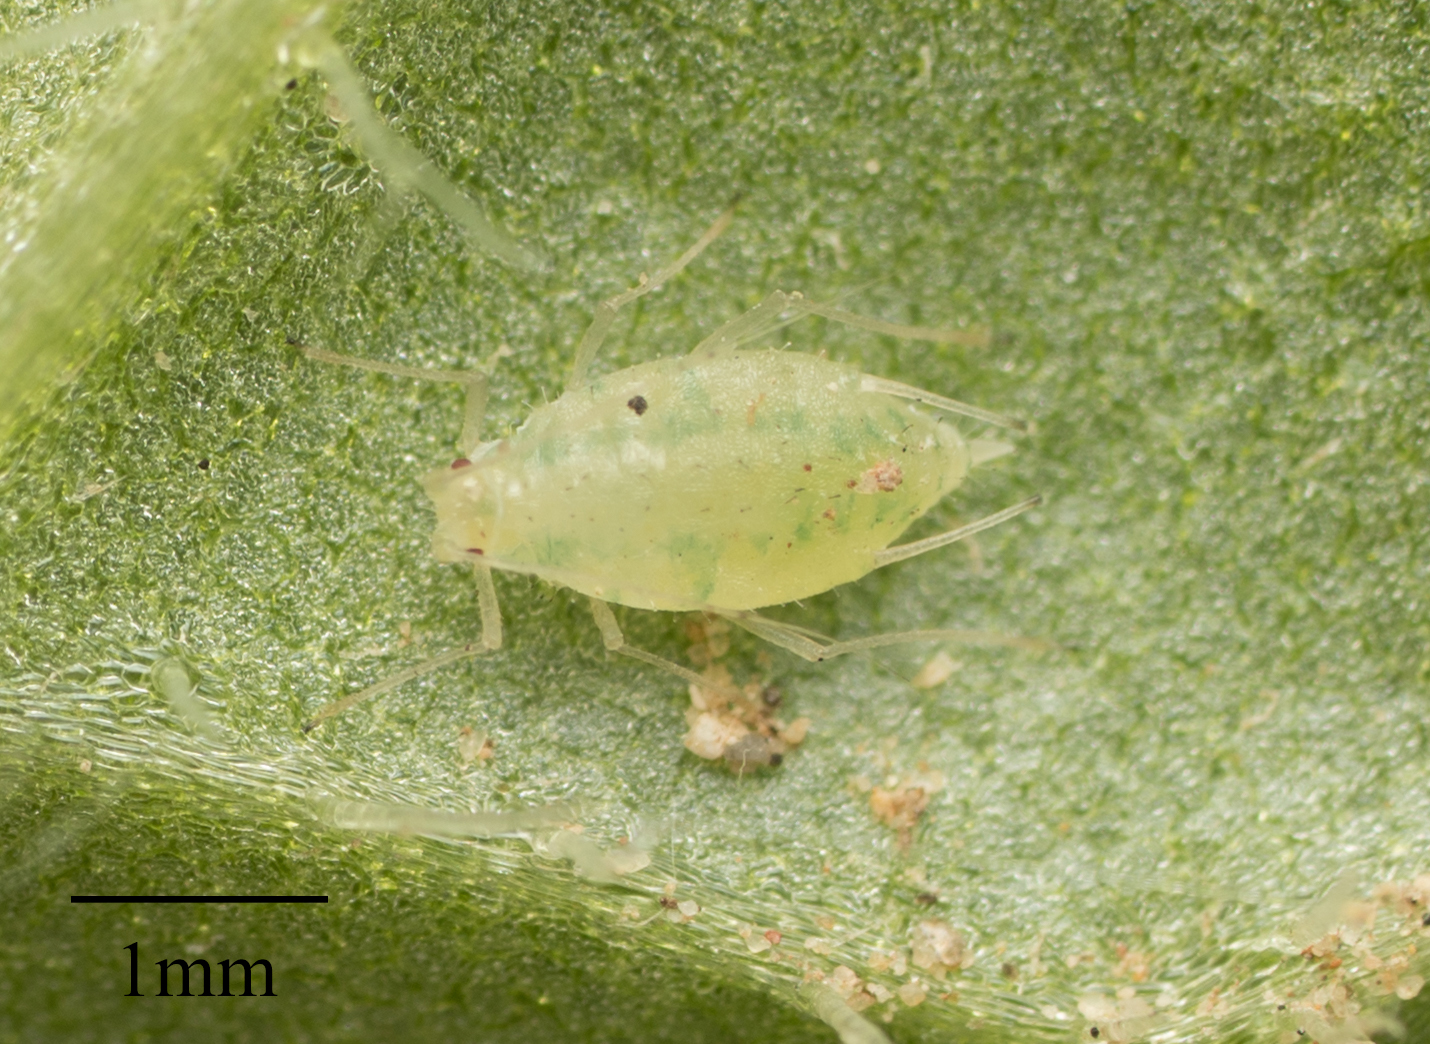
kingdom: Animalia
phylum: Arthropoda
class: Insecta
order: Hemiptera
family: Aphididae
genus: Vesiculaphis
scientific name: Vesiculaphis Capitophorus elaeagni
